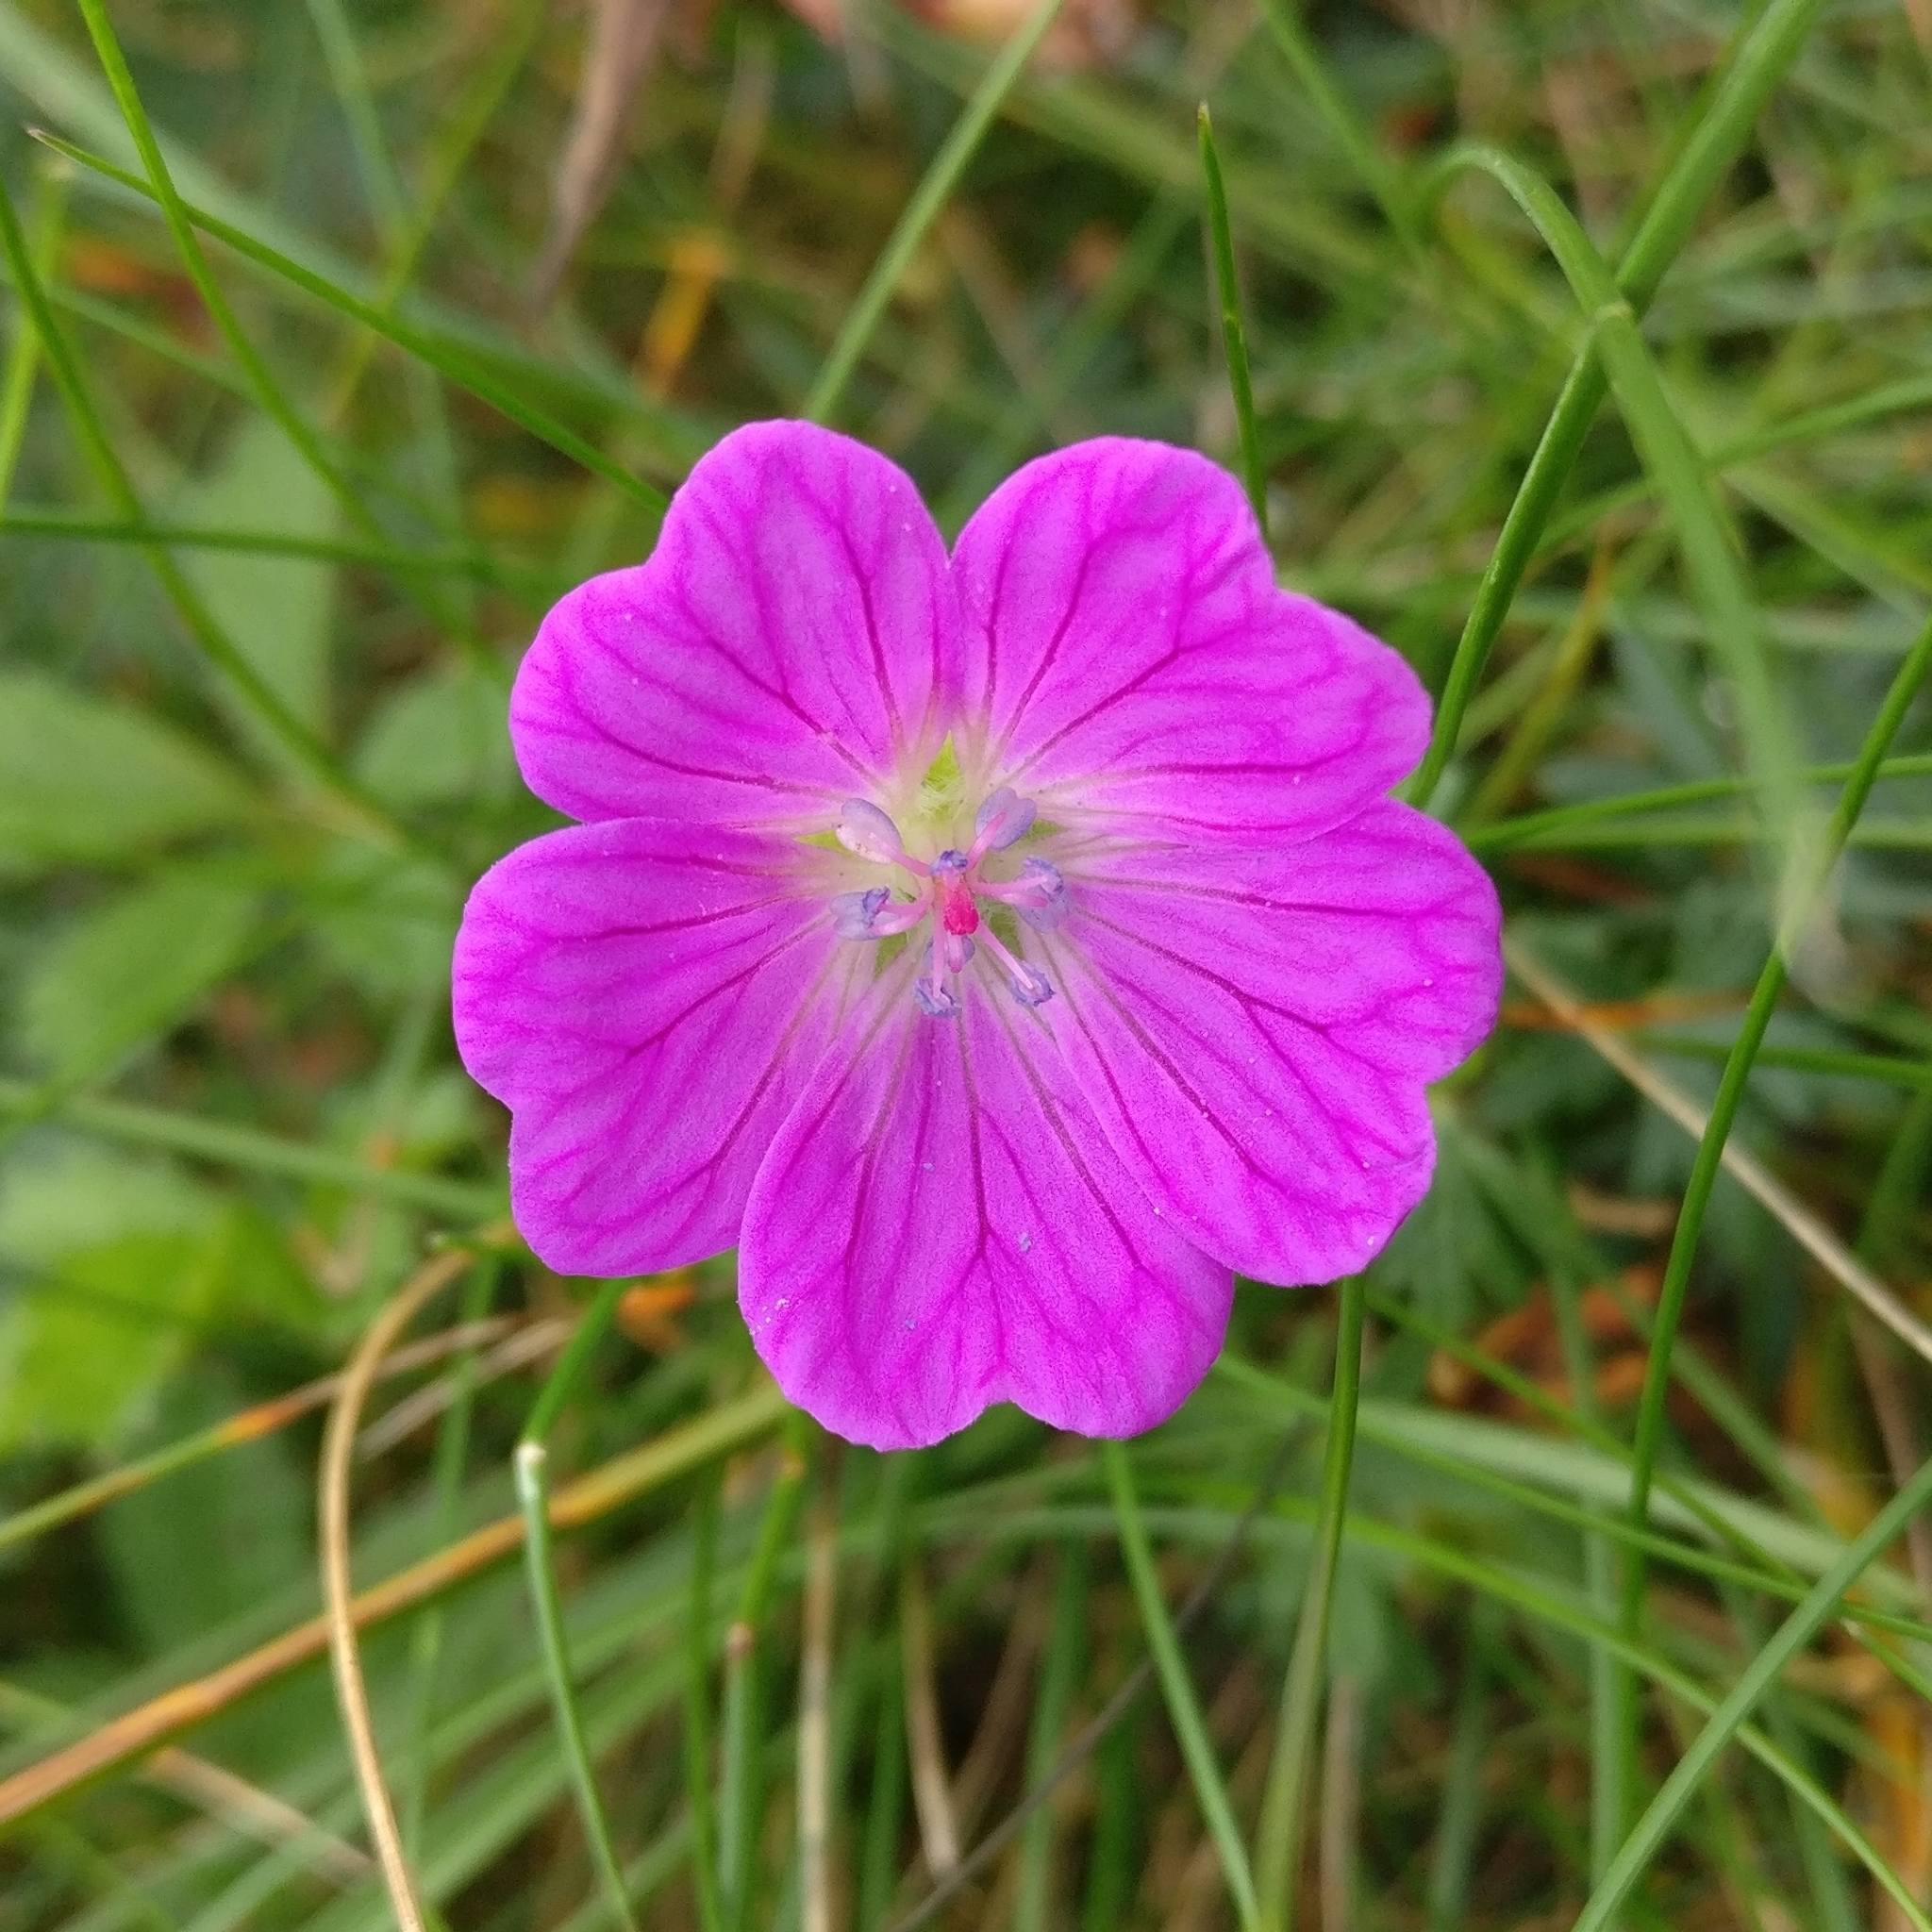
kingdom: Plantae
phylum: Tracheophyta
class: Magnoliopsida
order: Geraniales
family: Geraniaceae
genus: Geranium
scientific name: Geranium sanguineum
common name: Bloody crane's-bill
